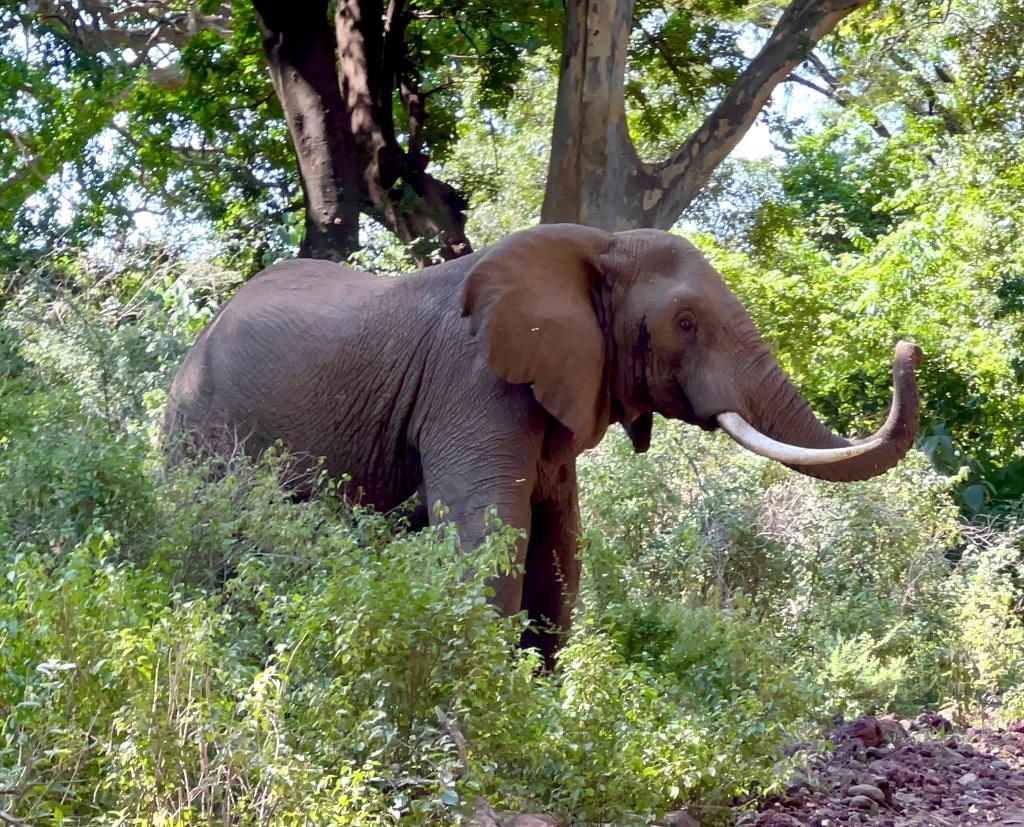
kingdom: Animalia
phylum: Chordata
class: Mammalia
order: Proboscidea
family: Elephantidae
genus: Loxodonta
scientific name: Loxodonta africana
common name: African elephant
